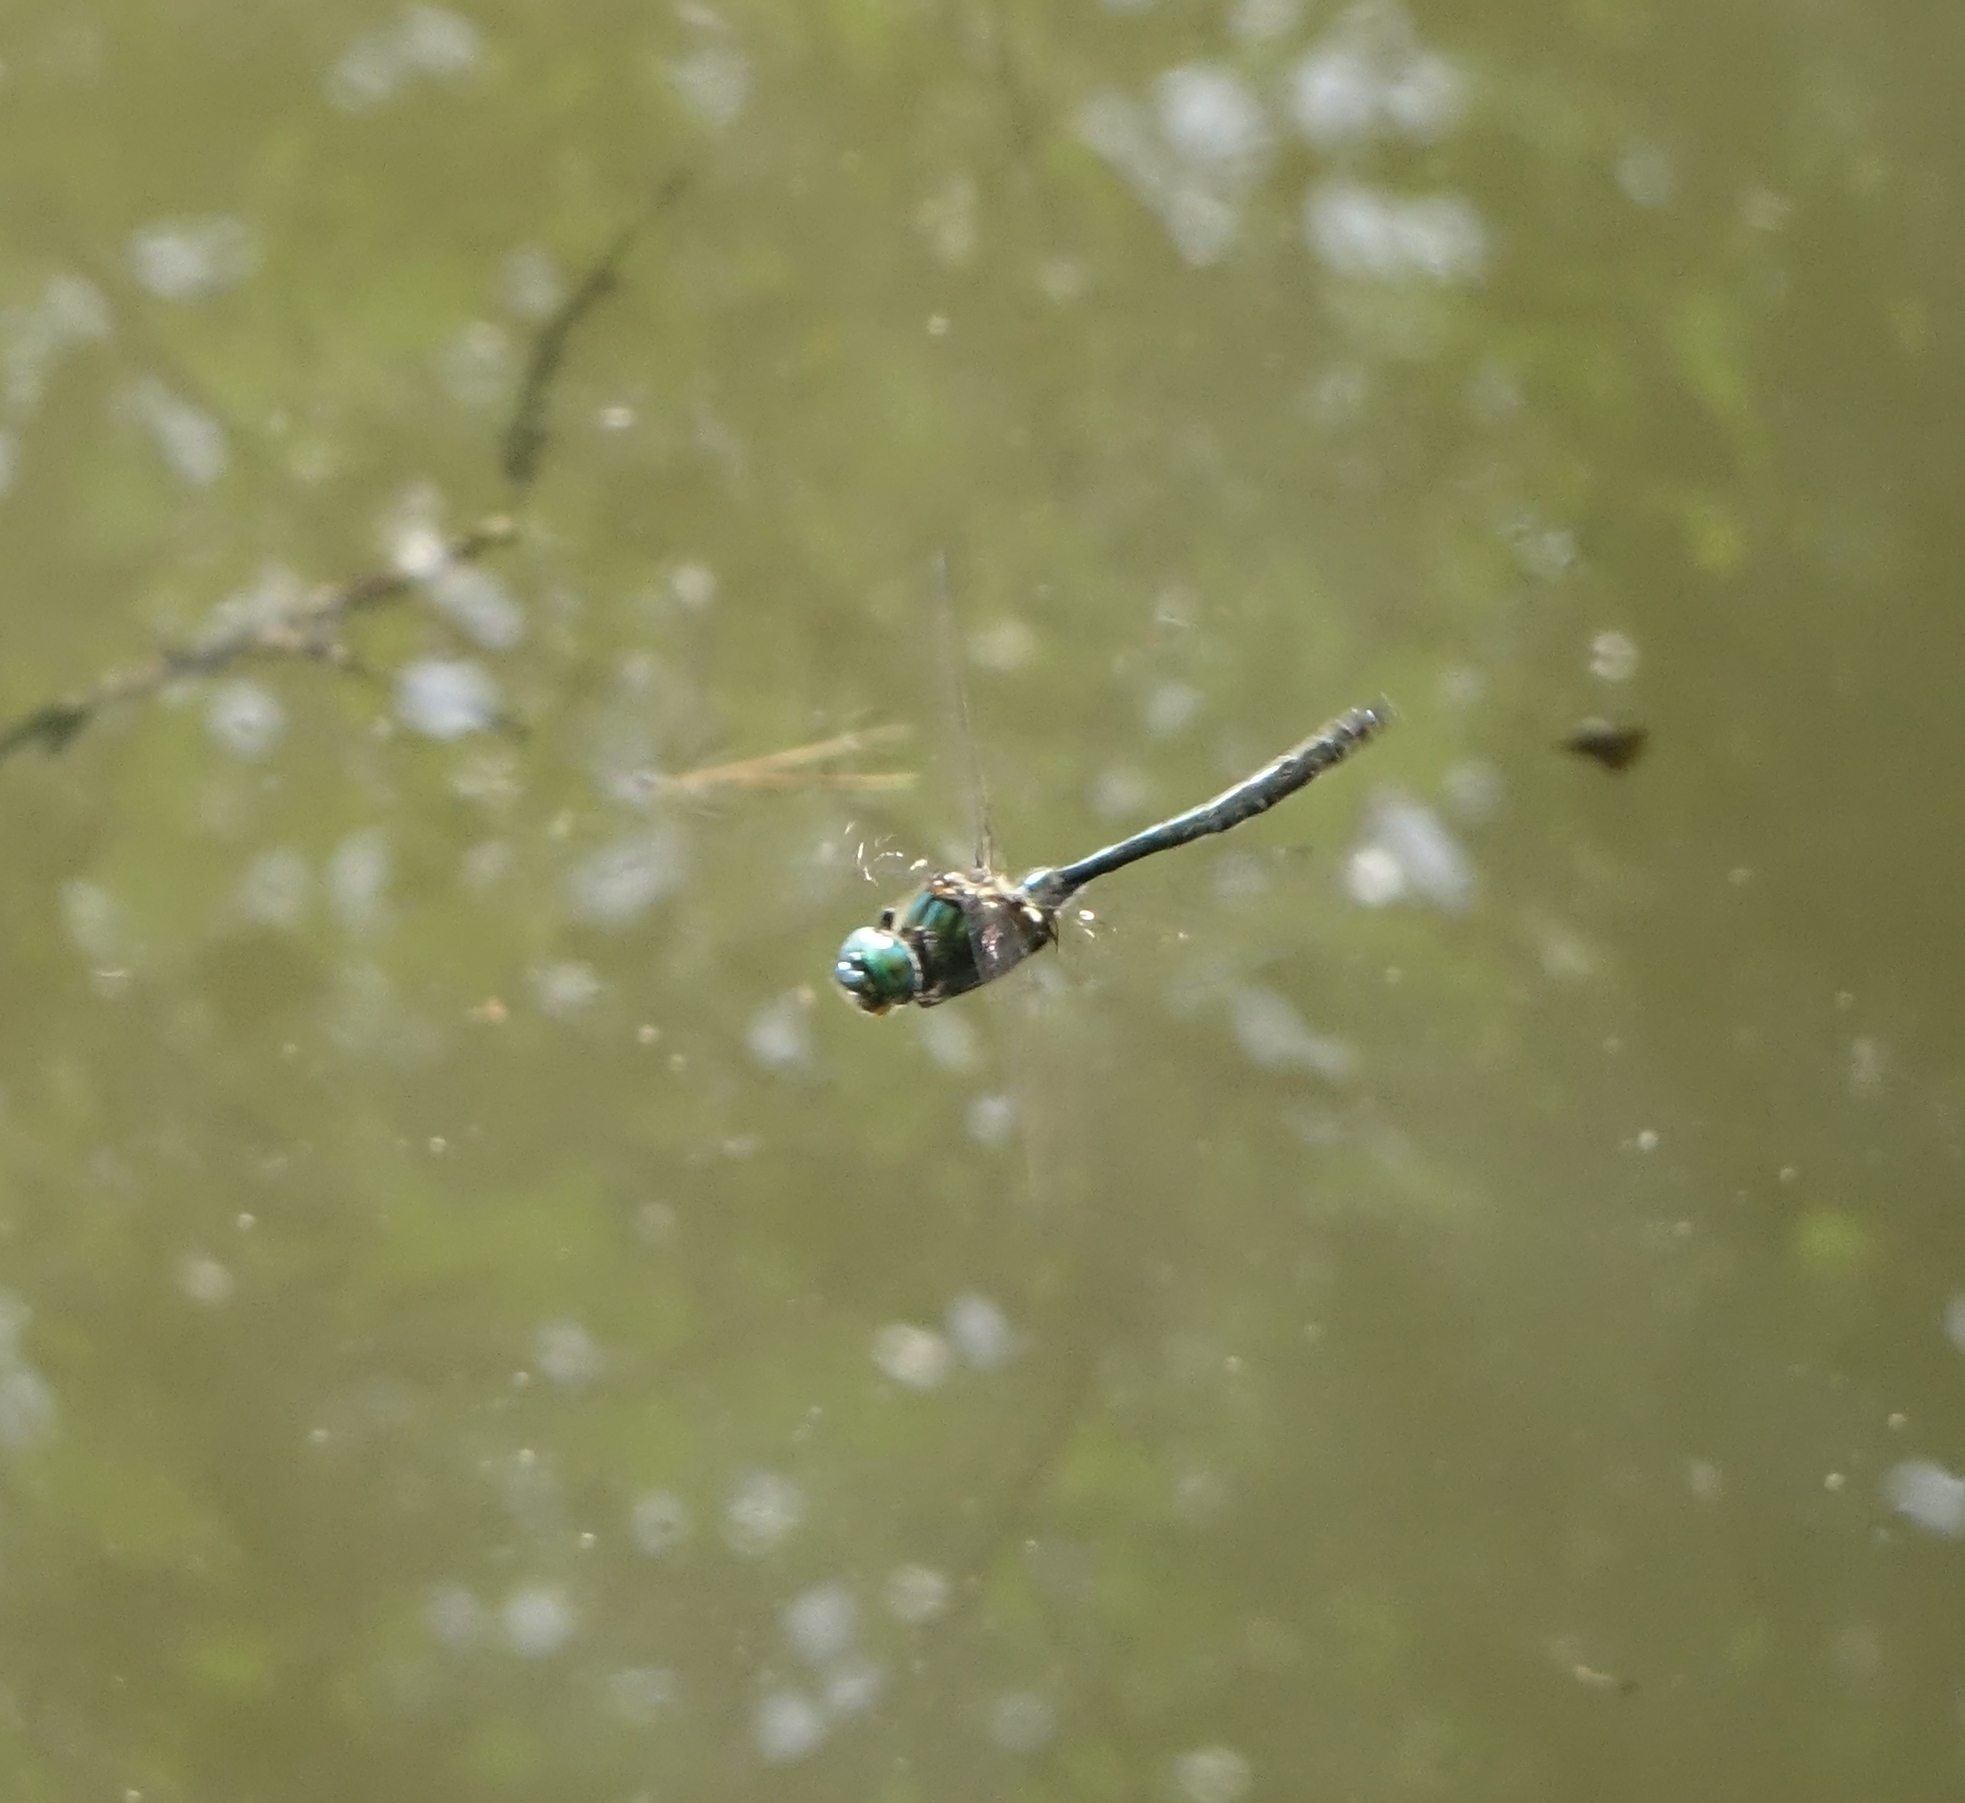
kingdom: Animalia
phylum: Arthropoda
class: Insecta
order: Odonata
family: Corduliidae
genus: Somatochlora
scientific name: Somatochlora graeseri
